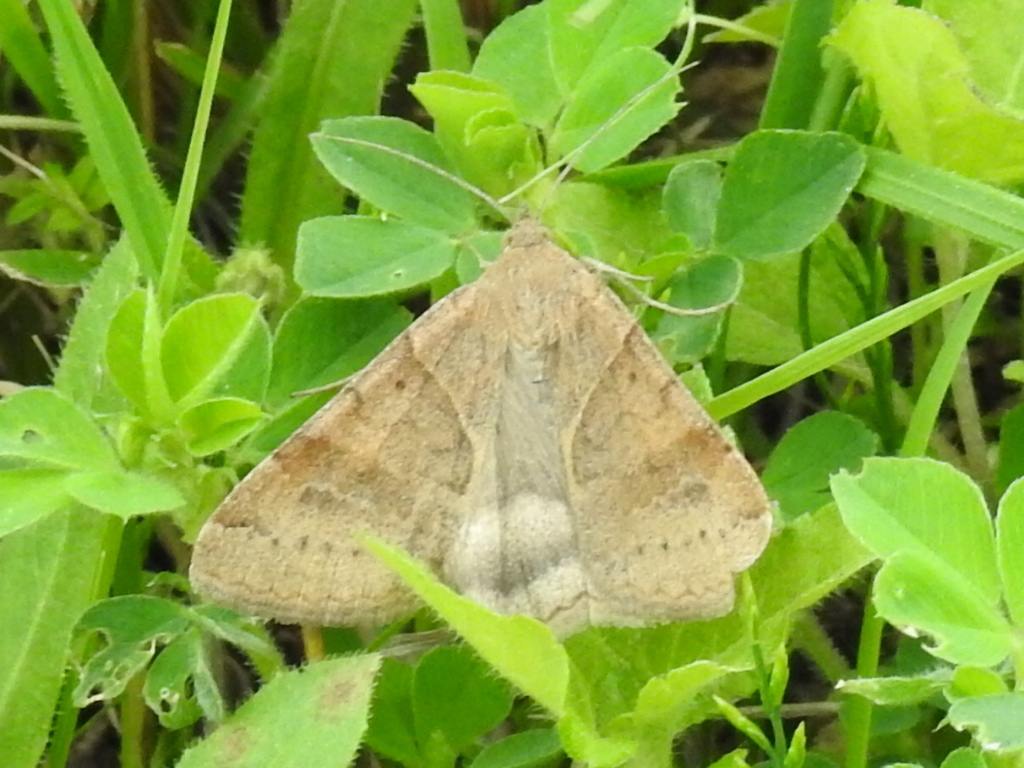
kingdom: Animalia
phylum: Arthropoda
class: Insecta
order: Lepidoptera
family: Erebidae
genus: Caenurgina
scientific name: Caenurgina erechtea
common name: Forage looper moth
